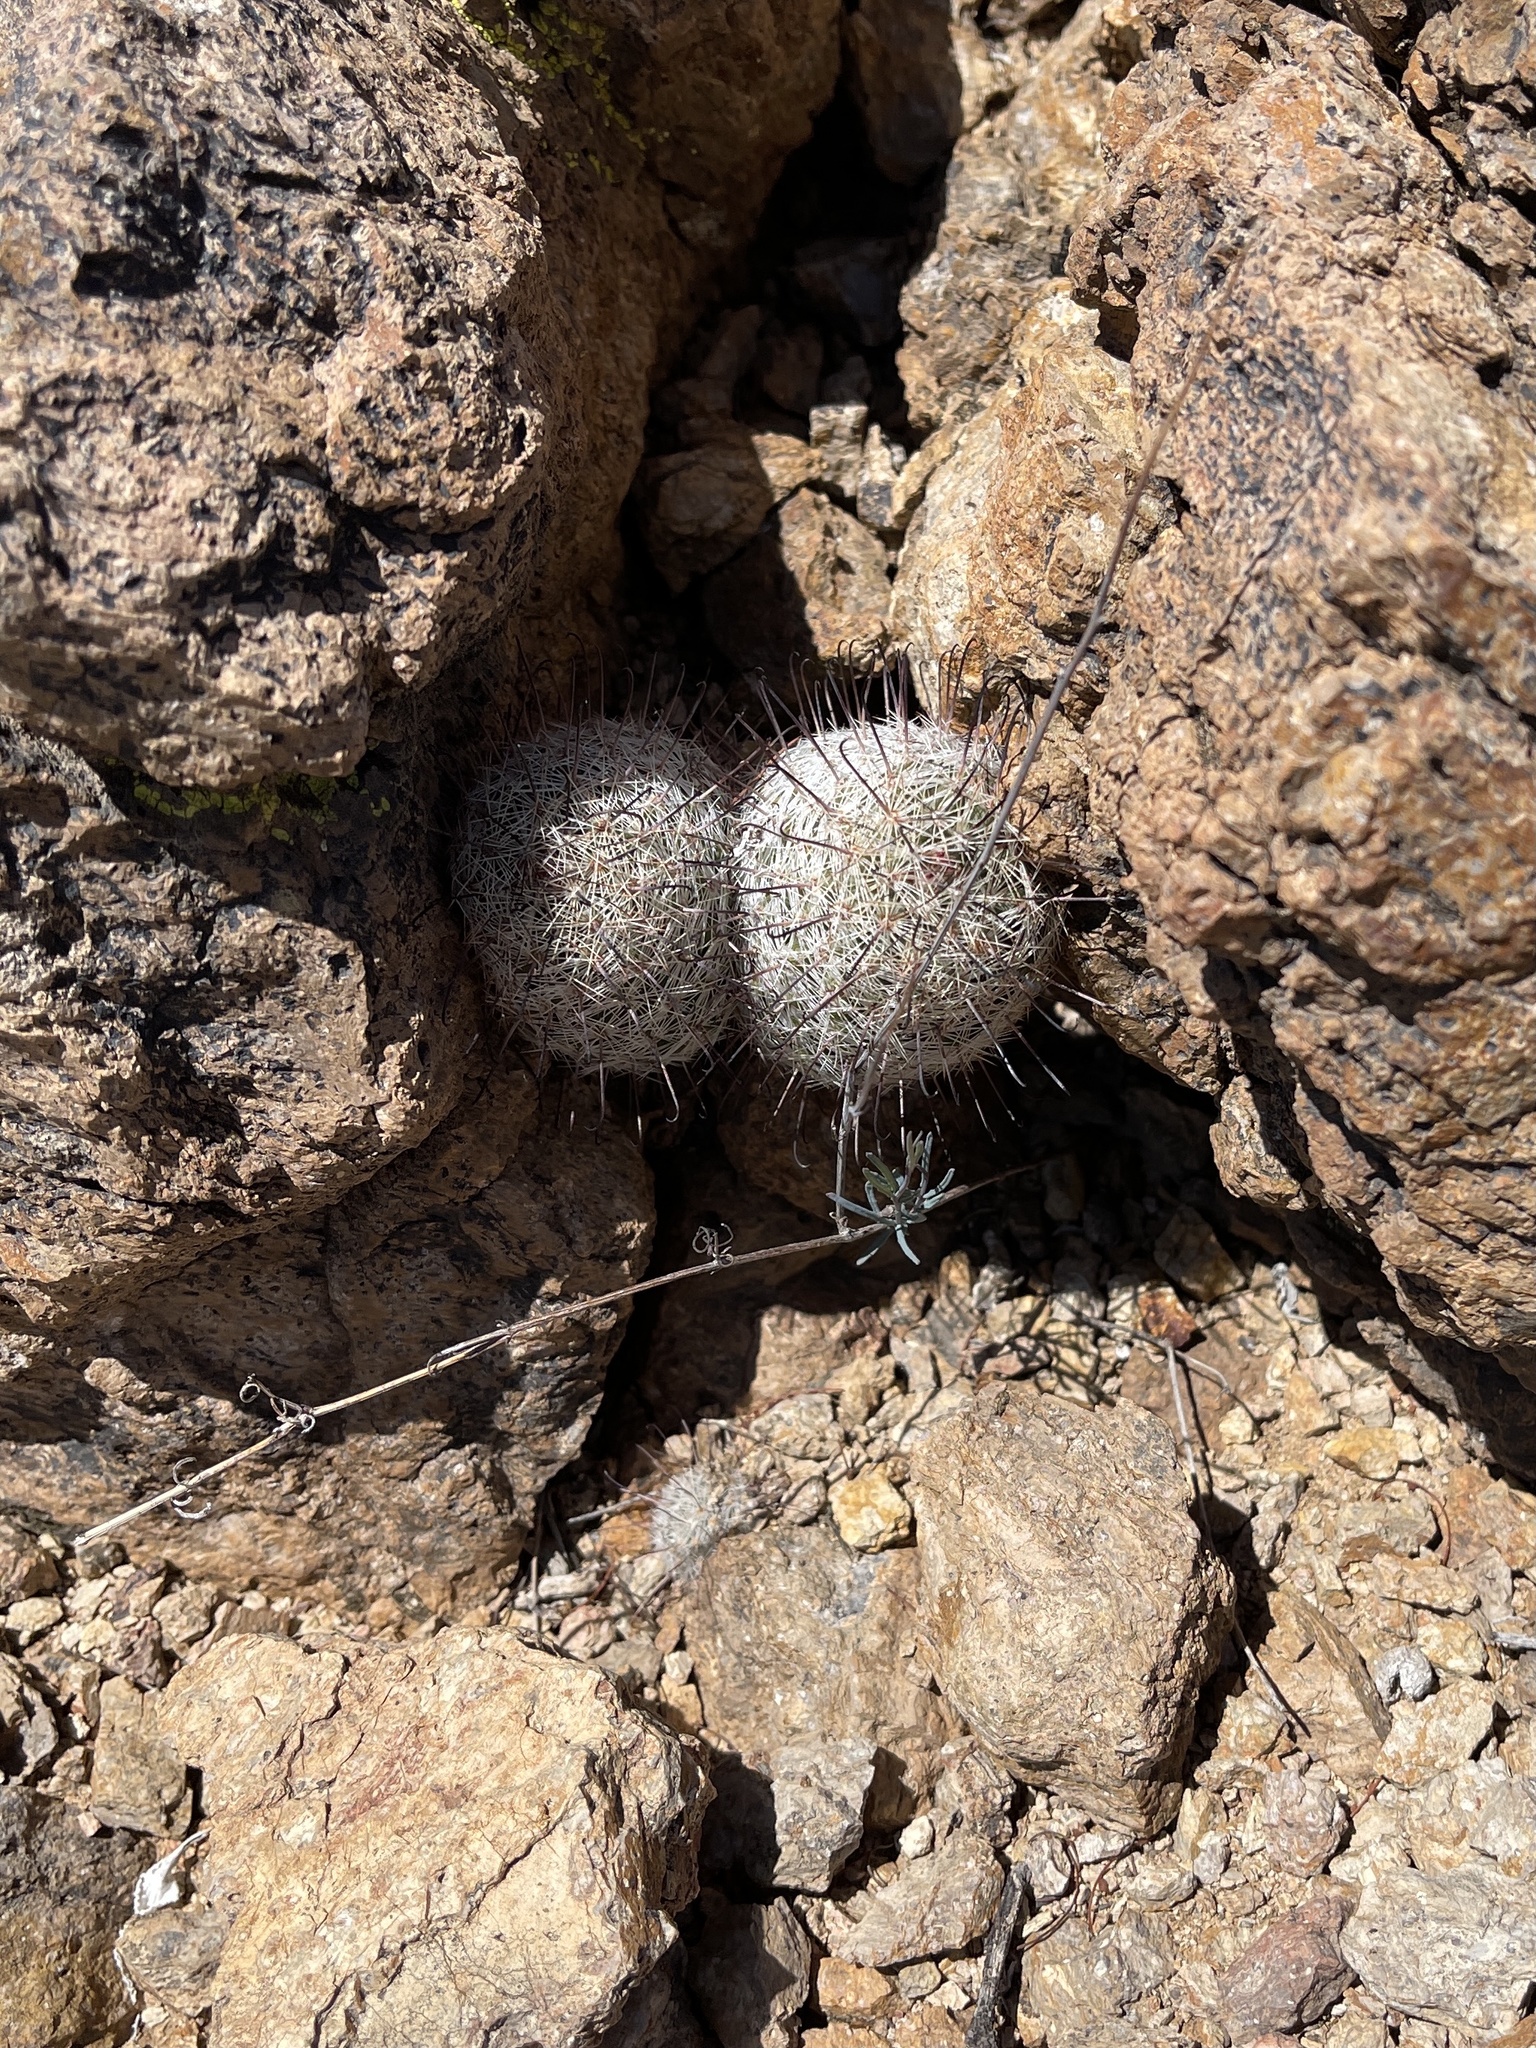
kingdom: Plantae
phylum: Tracheophyta
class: Magnoliopsida
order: Caryophyllales
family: Cactaceae
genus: Cochemiea
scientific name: Cochemiea grahamii
